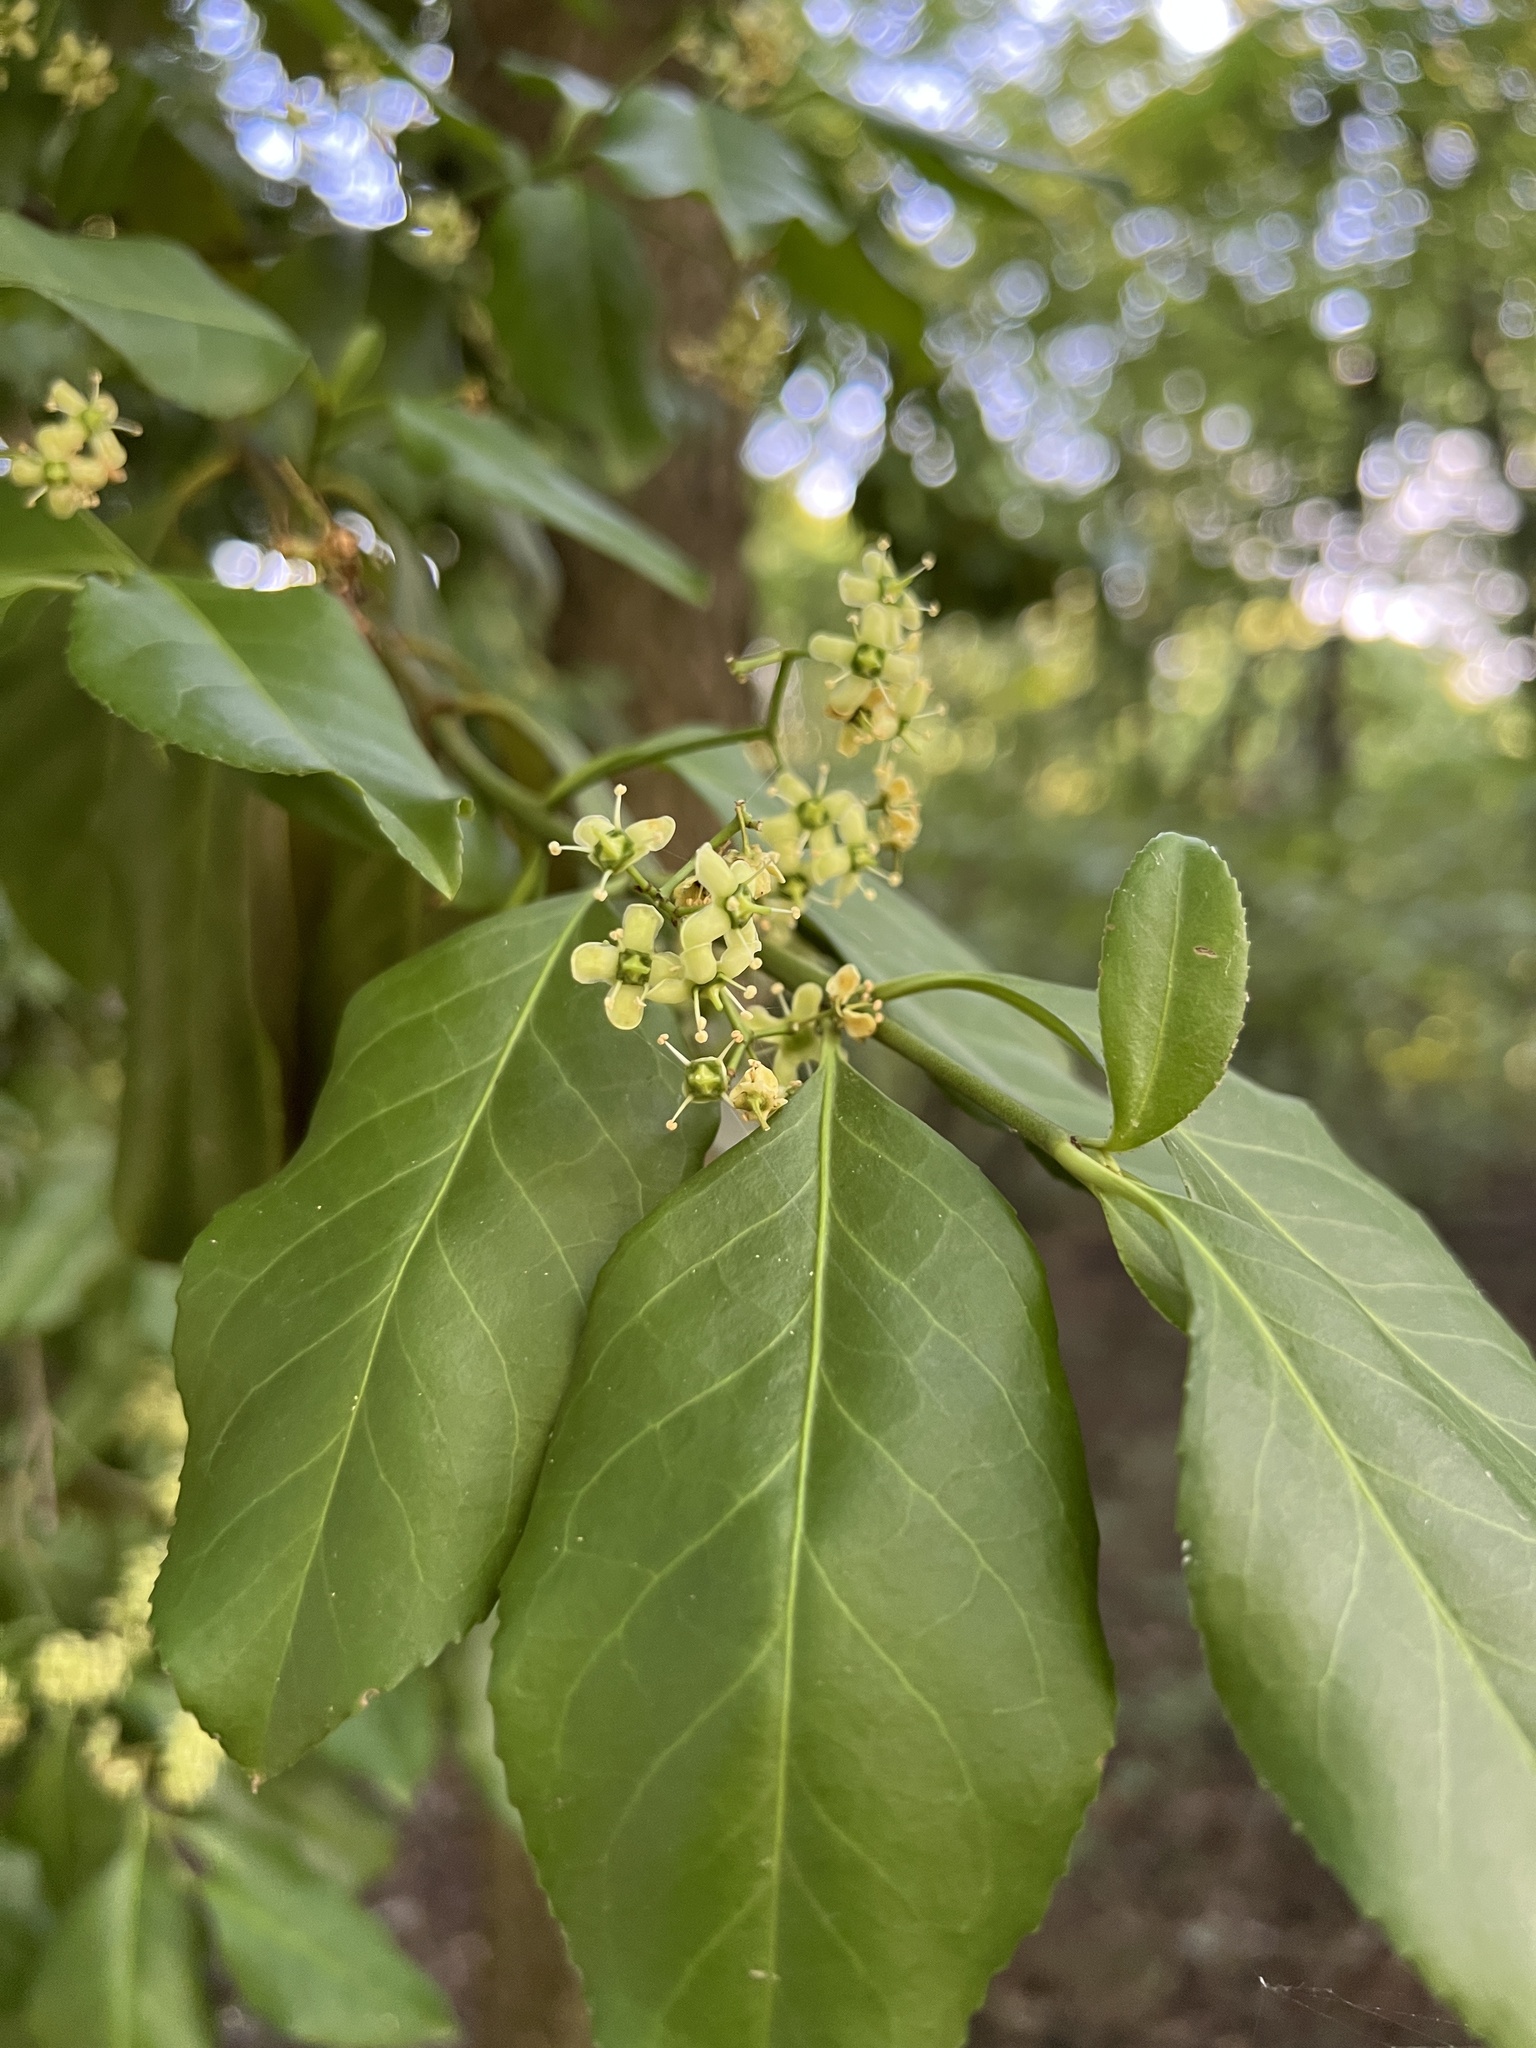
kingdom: Plantae
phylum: Tracheophyta
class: Magnoliopsida
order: Celastrales
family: Celastraceae
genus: Euonymus
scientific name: Euonymus fortunei
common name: Climbing euonymus
